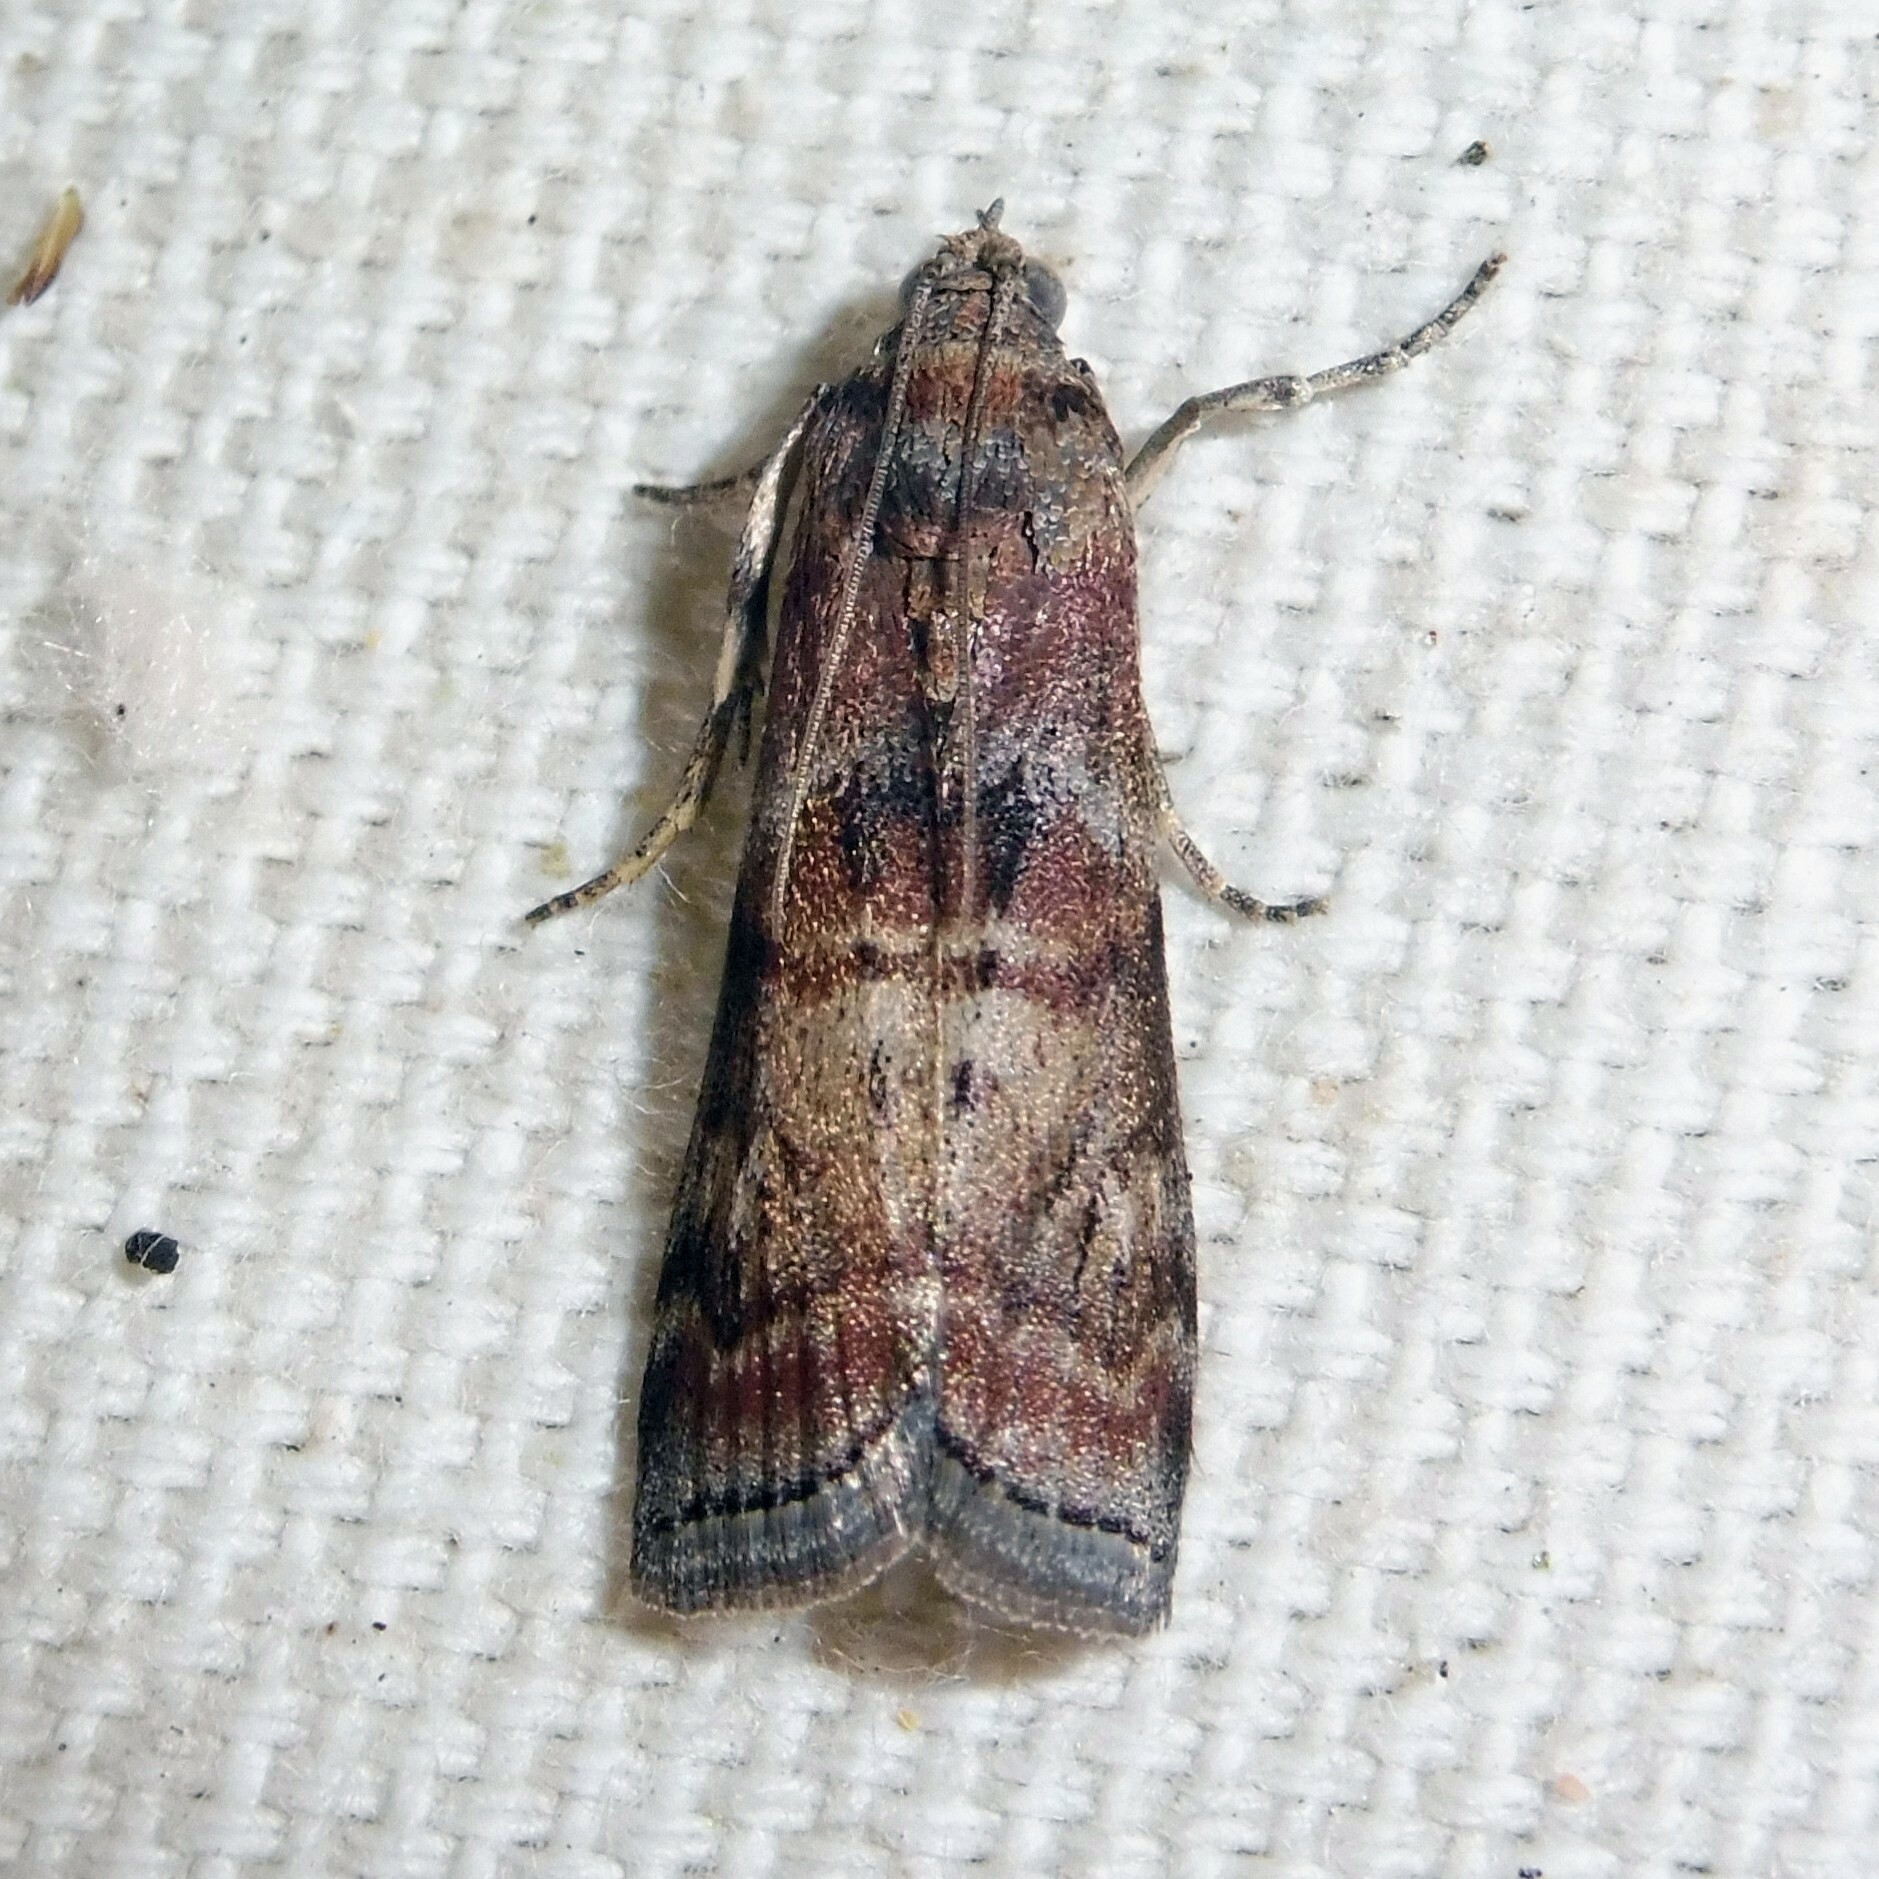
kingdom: Animalia
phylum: Arthropoda
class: Insecta
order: Lepidoptera
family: Pyralidae
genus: Phycita
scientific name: Phycita roborella
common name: Dotted oak knot-horn
